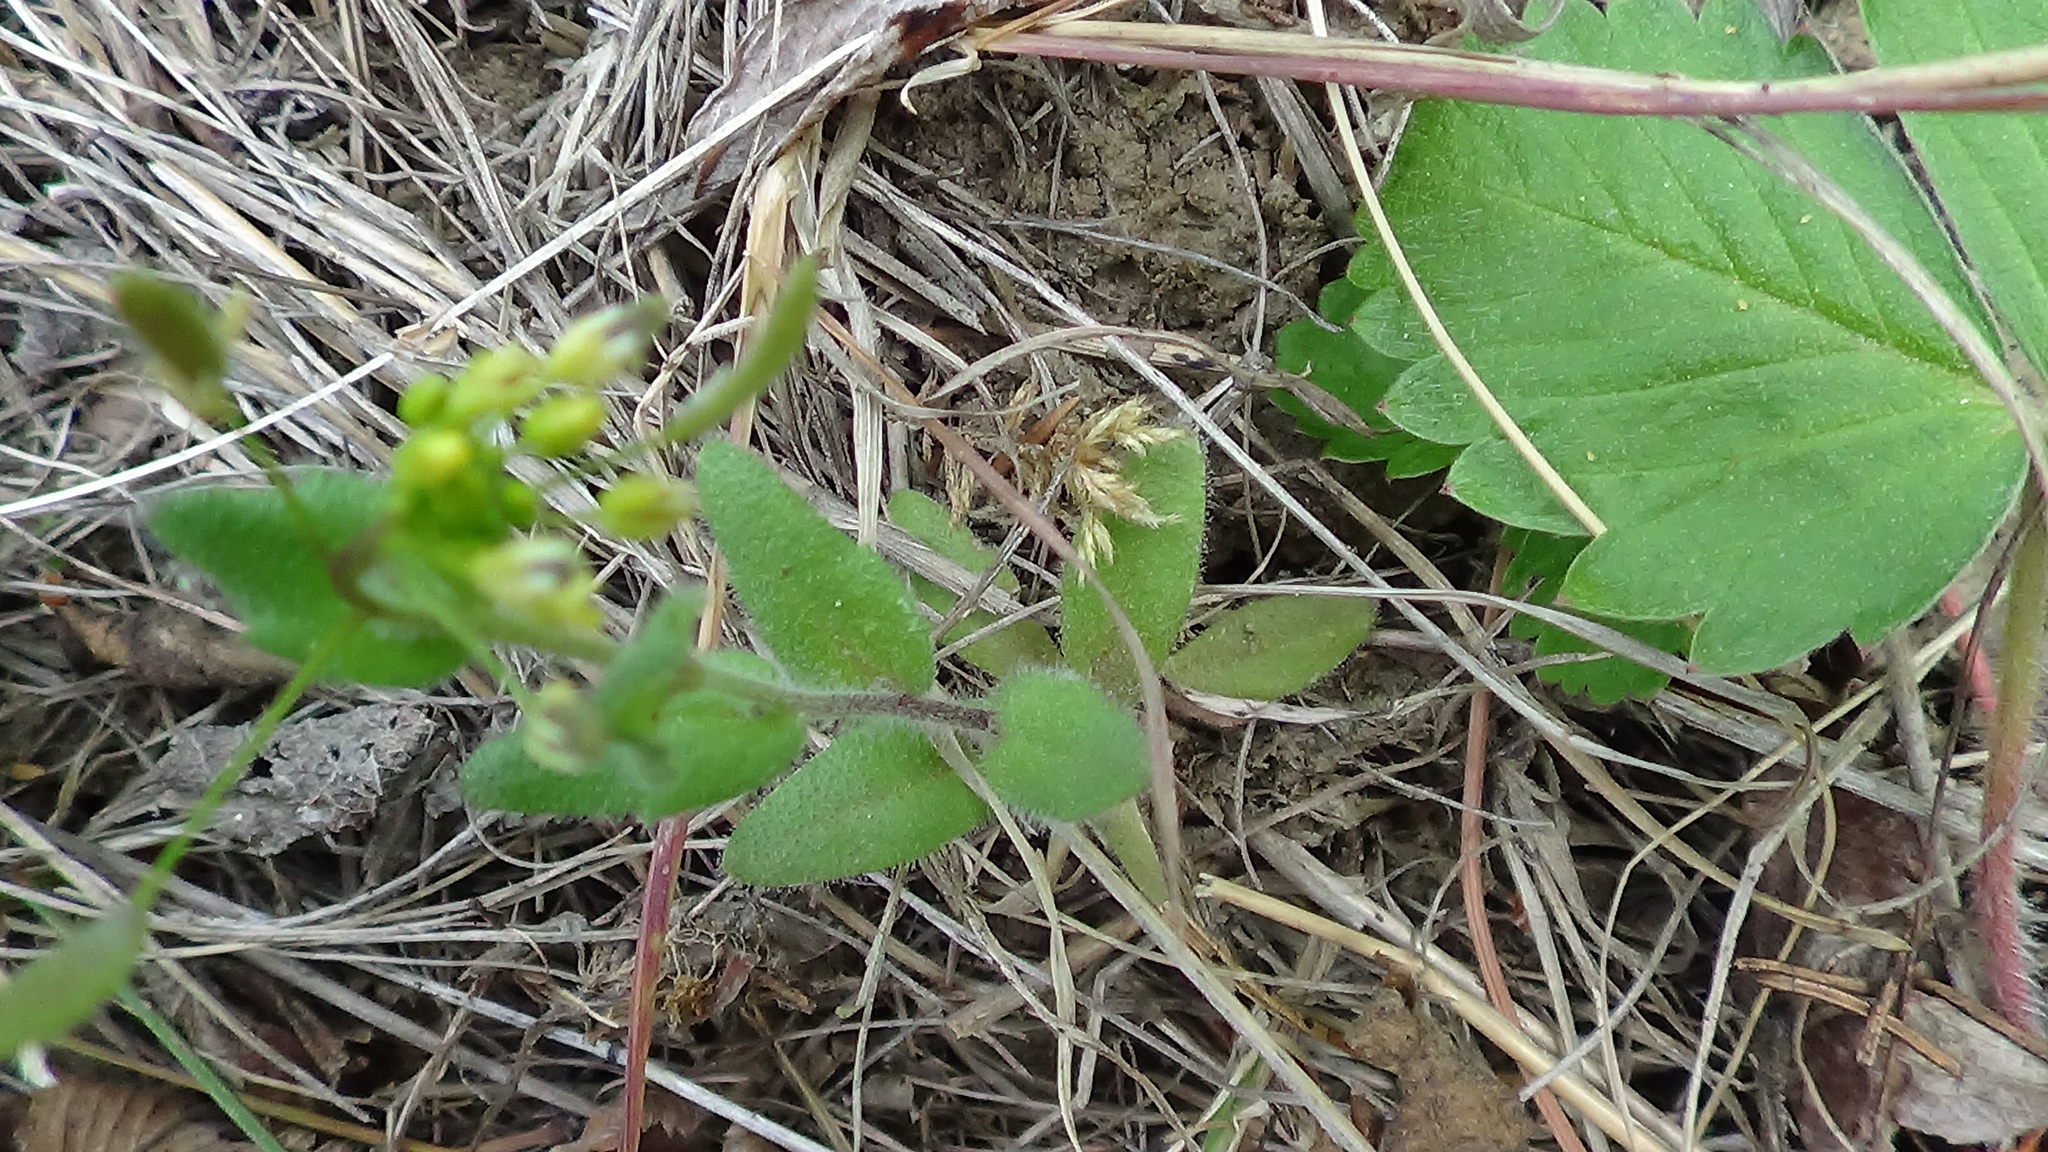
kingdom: Plantae
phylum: Tracheophyta
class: Magnoliopsida
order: Brassicales
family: Brassicaceae
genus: Draba
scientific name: Draba nemorosa
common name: Wood whitlow-grass
